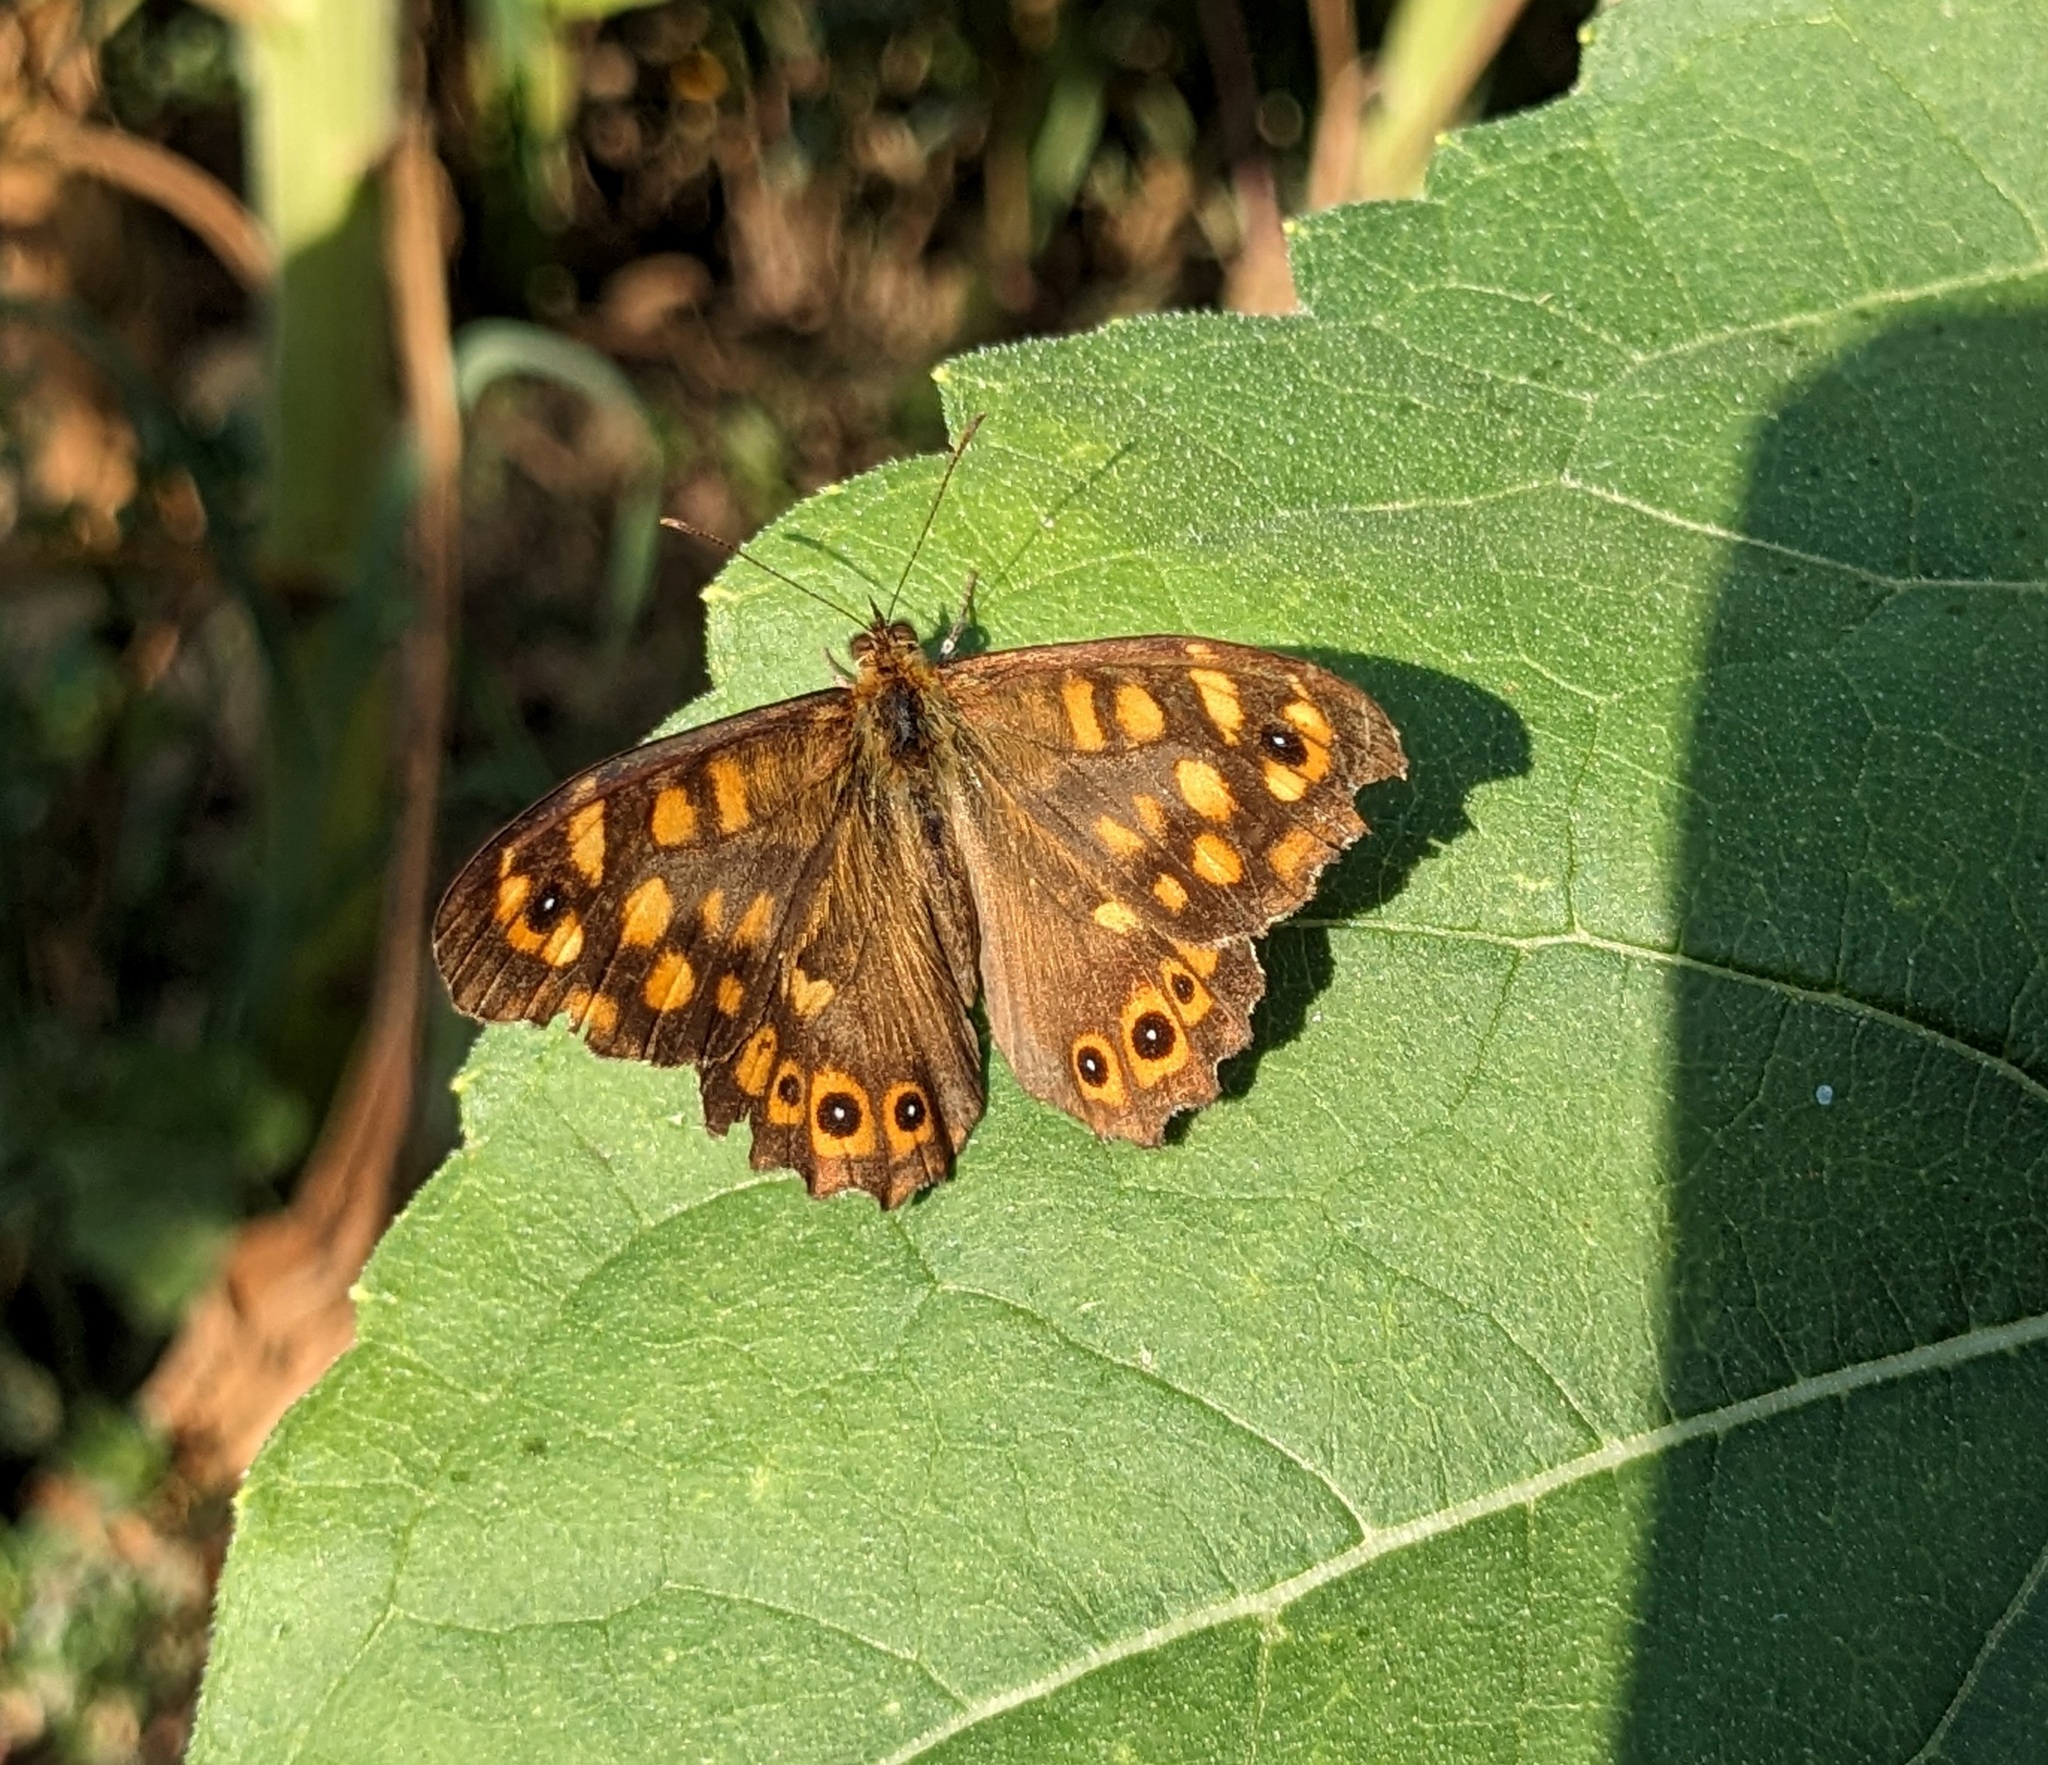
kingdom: Animalia
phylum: Arthropoda
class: Insecta
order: Lepidoptera
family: Nymphalidae
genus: Pararge
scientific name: Pararge aegeria
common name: Speckled wood
